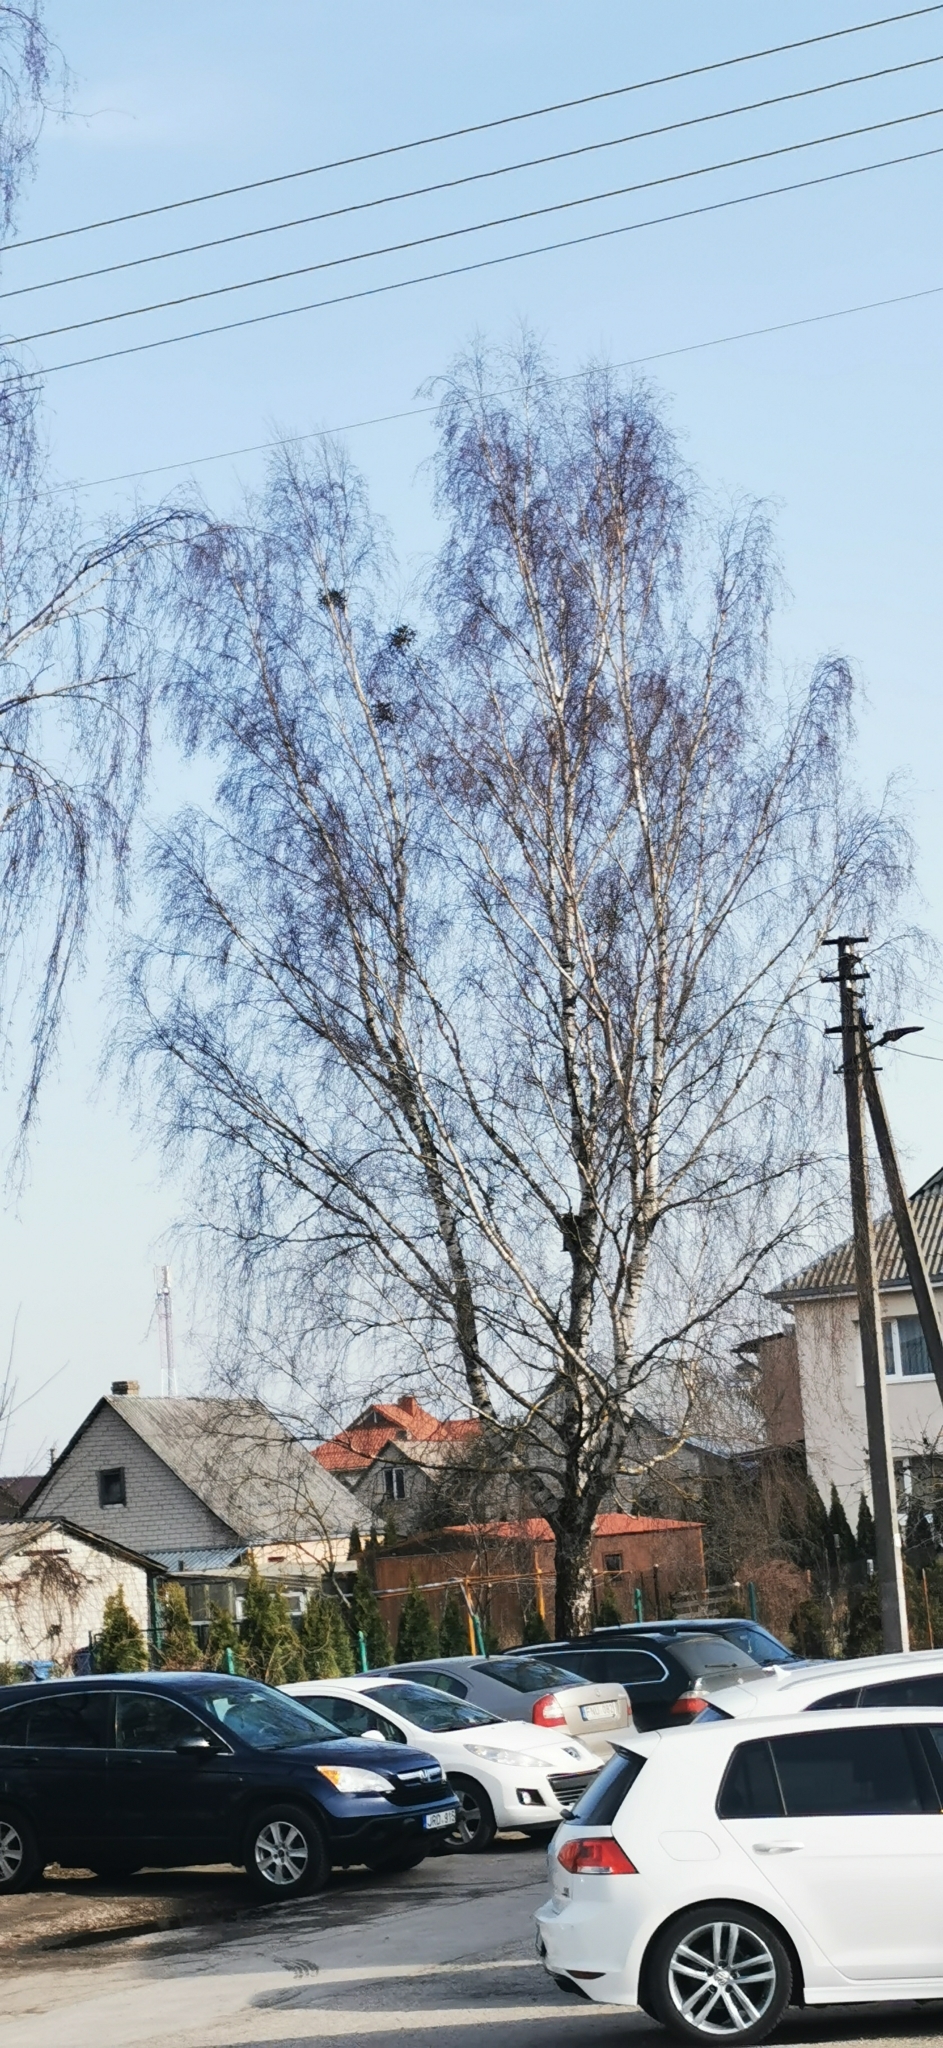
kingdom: Plantae
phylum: Tracheophyta
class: Magnoliopsida
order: Santalales
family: Viscaceae
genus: Viscum
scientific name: Viscum album
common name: Mistletoe
